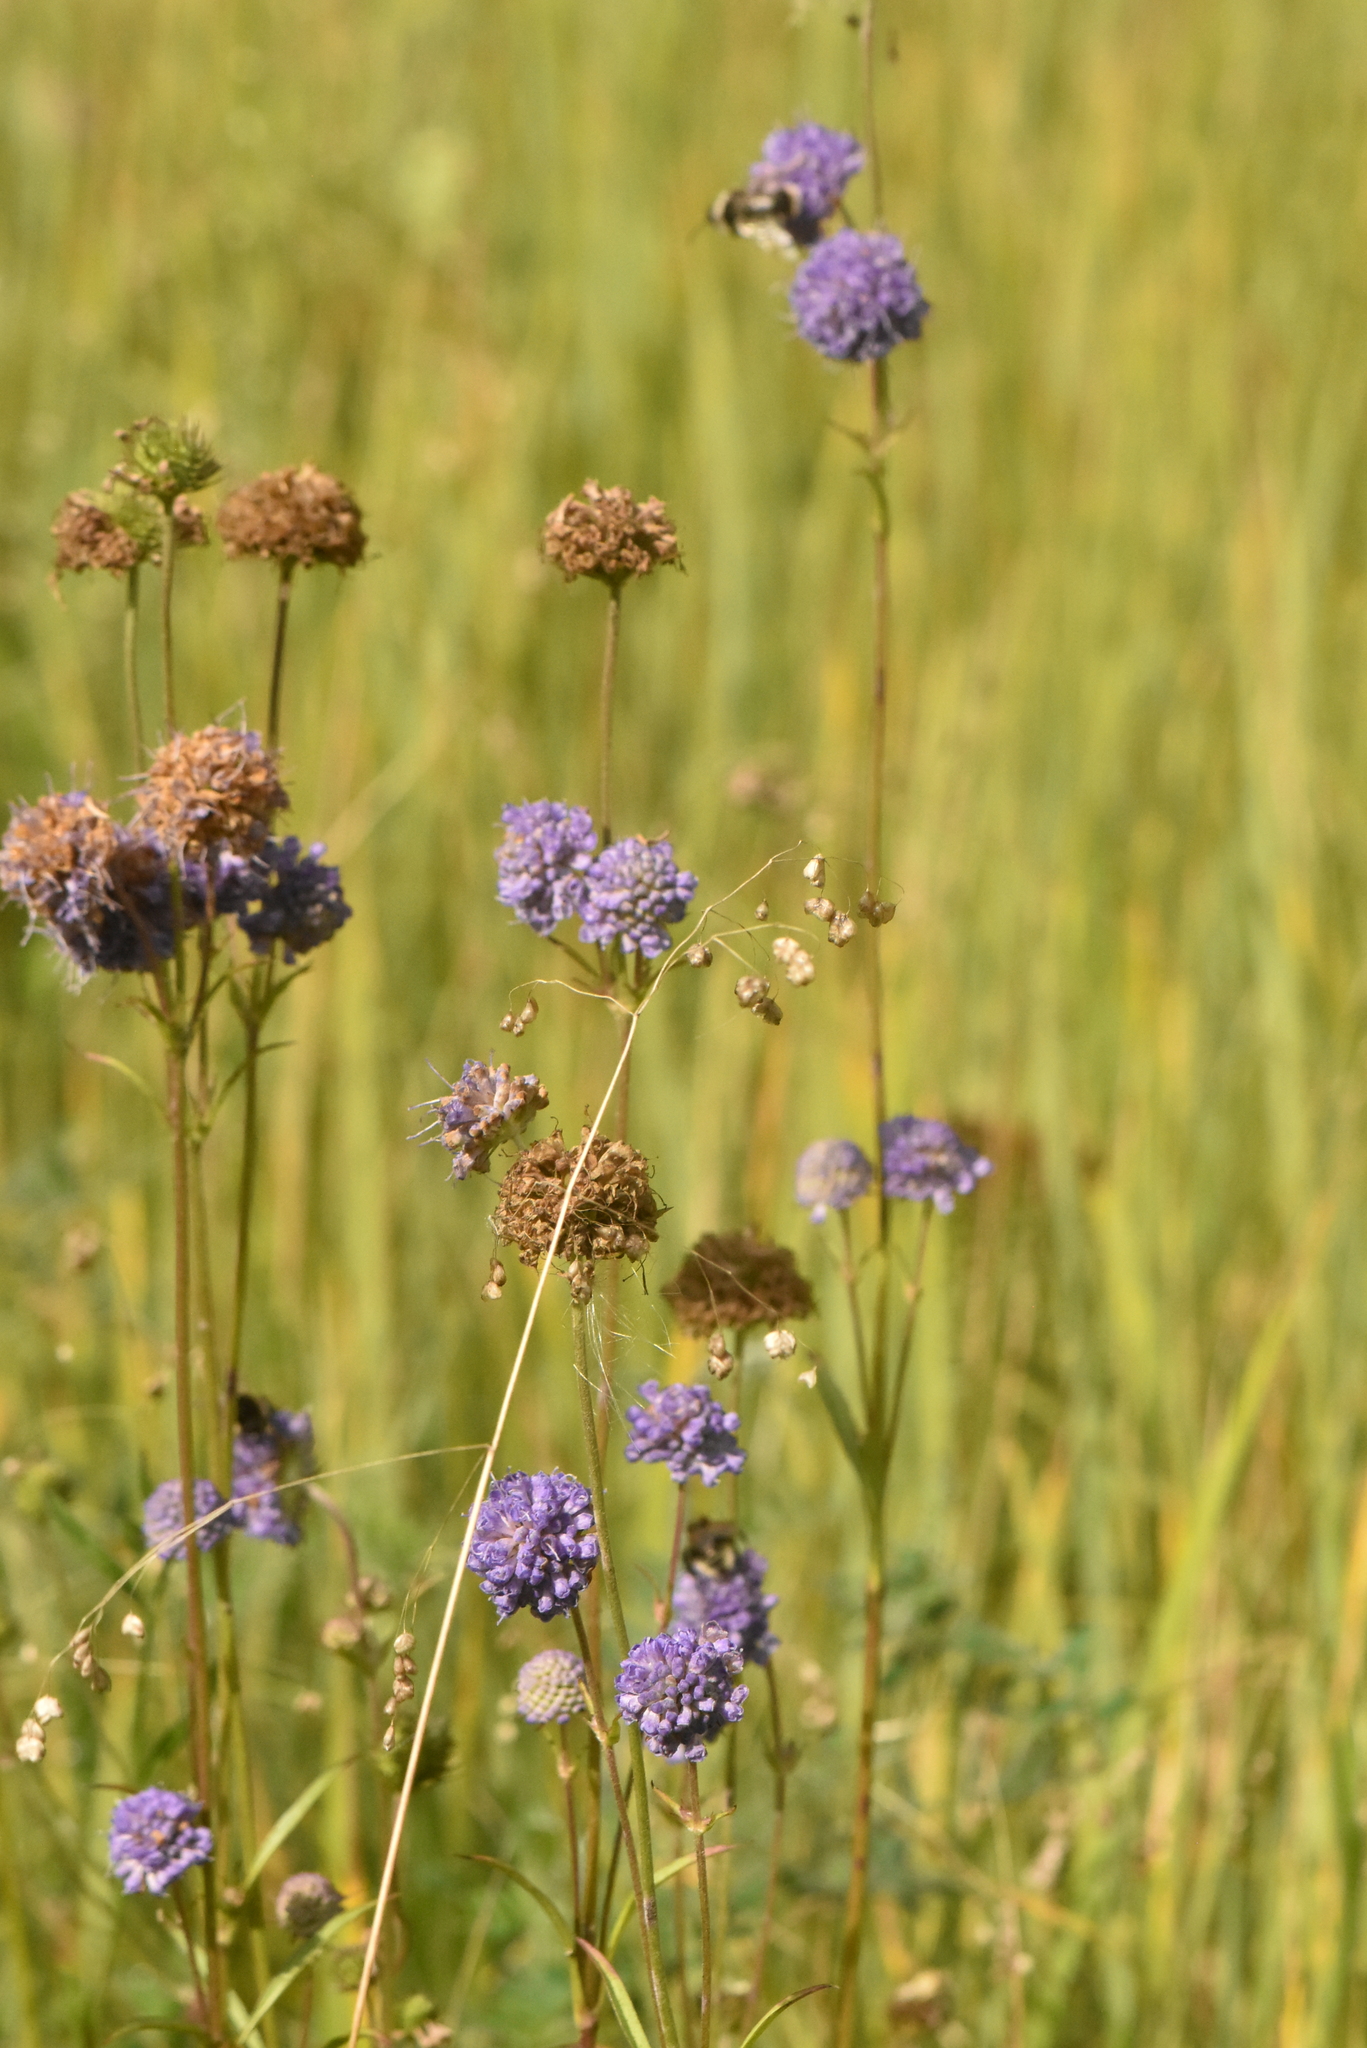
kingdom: Plantae
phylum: Tracheophyta
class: Magnoliopsida
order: Dipsacales
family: Caprifoliaceae
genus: Succisa
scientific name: Succisa pratensis
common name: Devil's-bit
